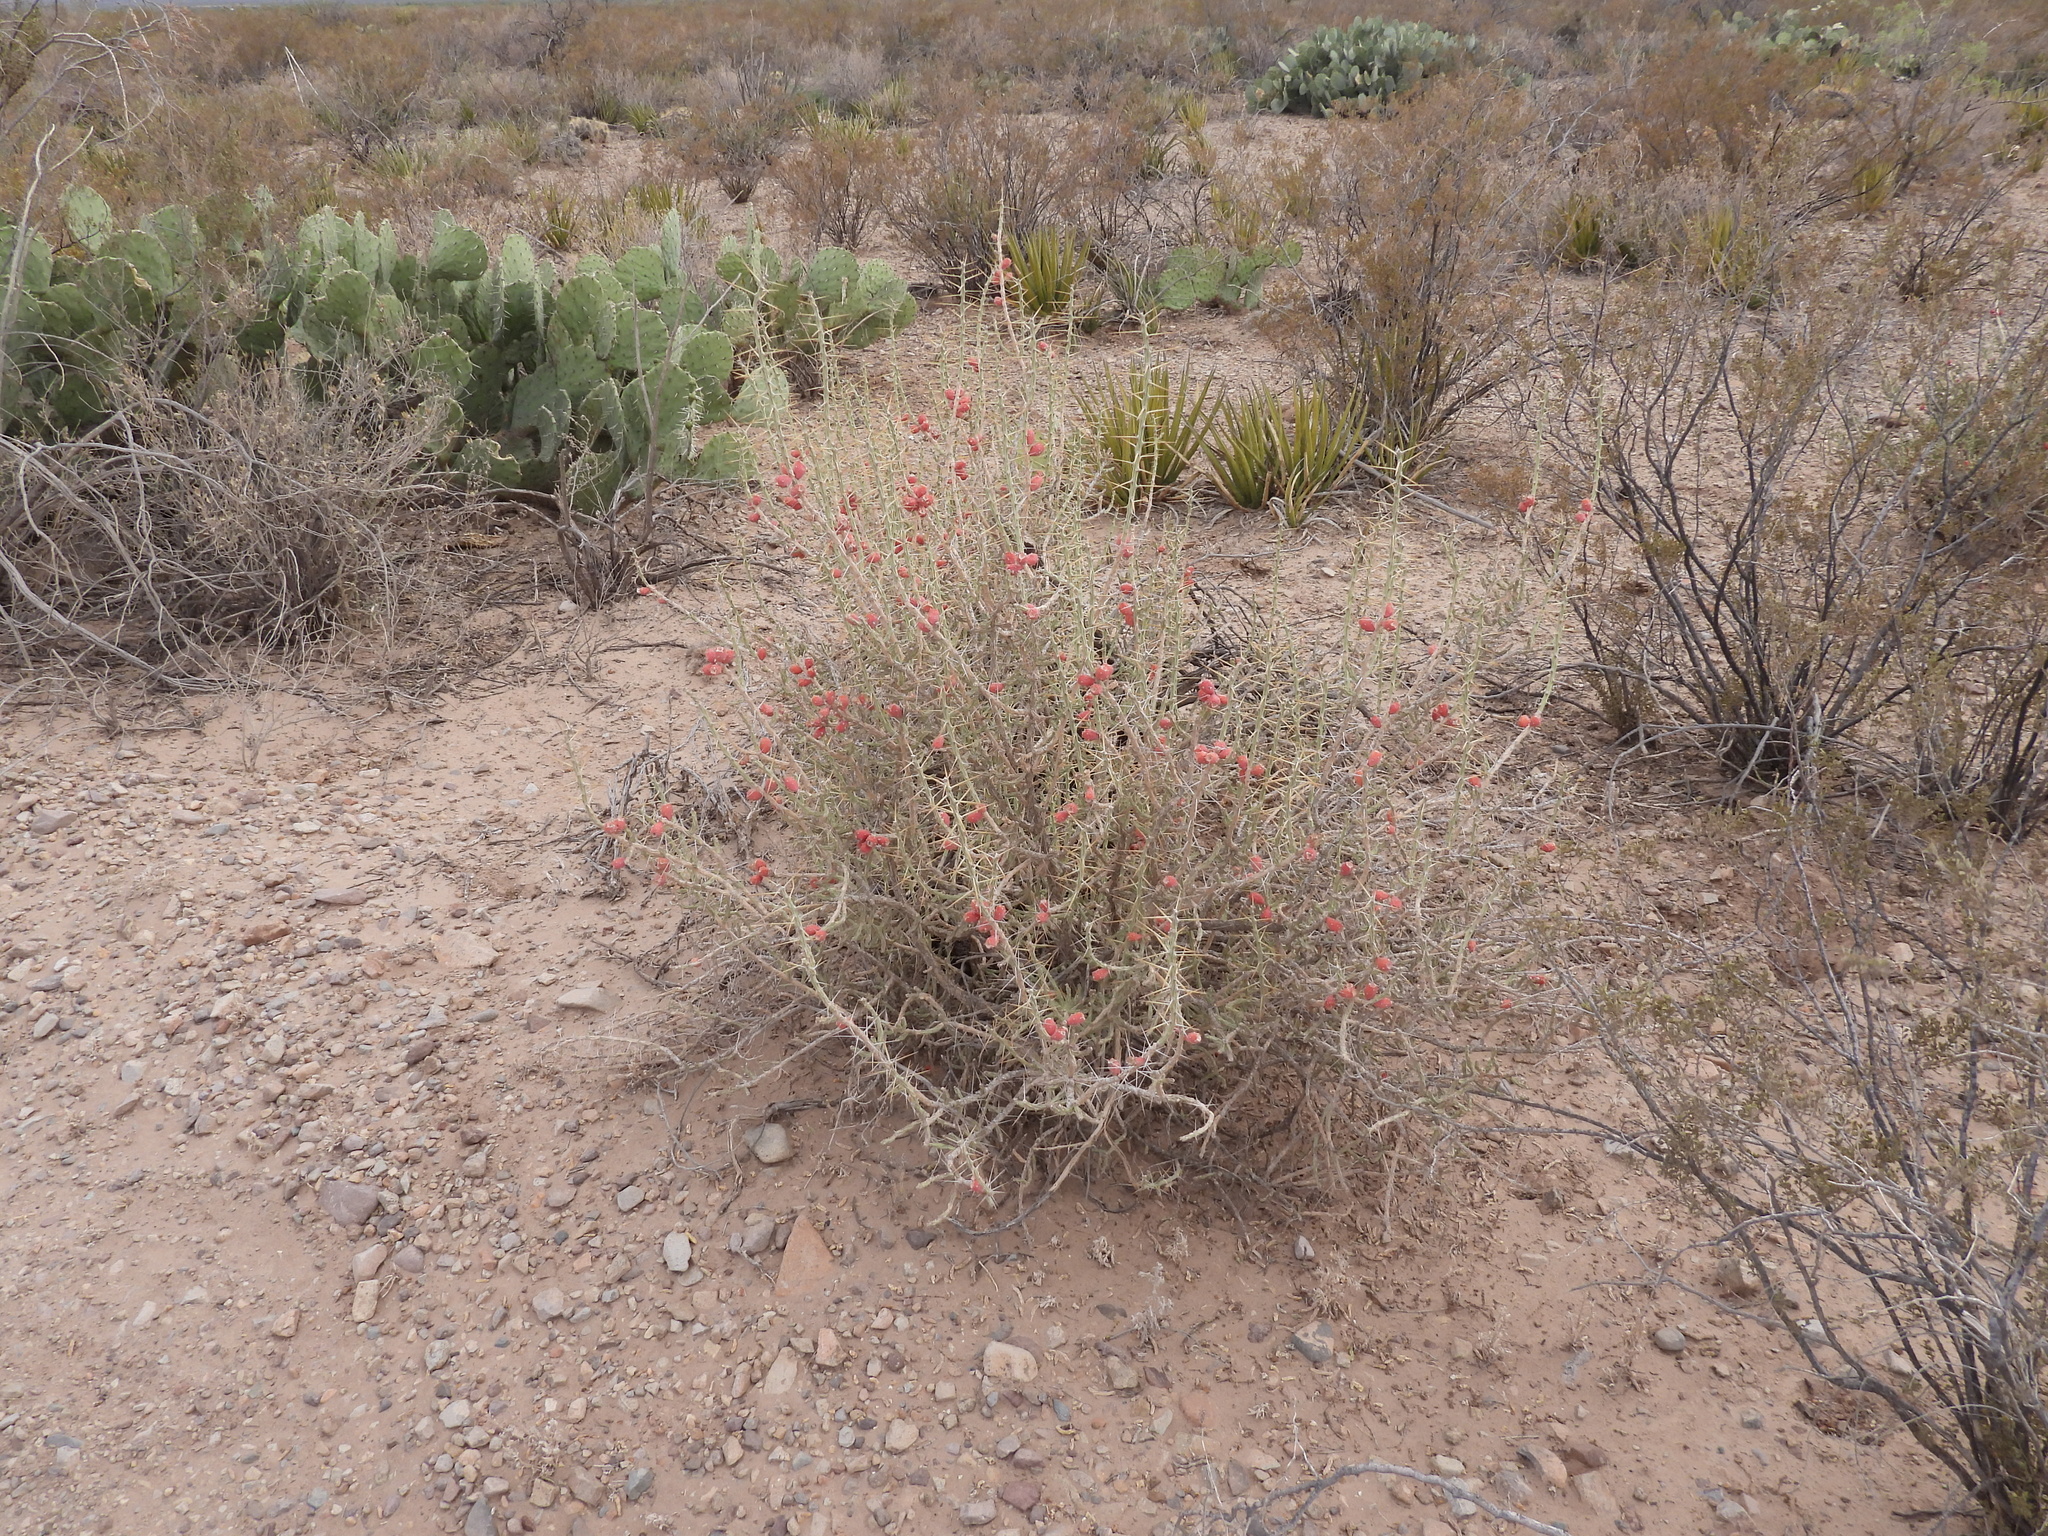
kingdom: Plantae
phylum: Tracheophyta
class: Magnoliopsida
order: Caryophyllales
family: Cactaceae
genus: Cylindropuntia
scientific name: Cylindropuntia leptocaulis
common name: Christmas cactus
